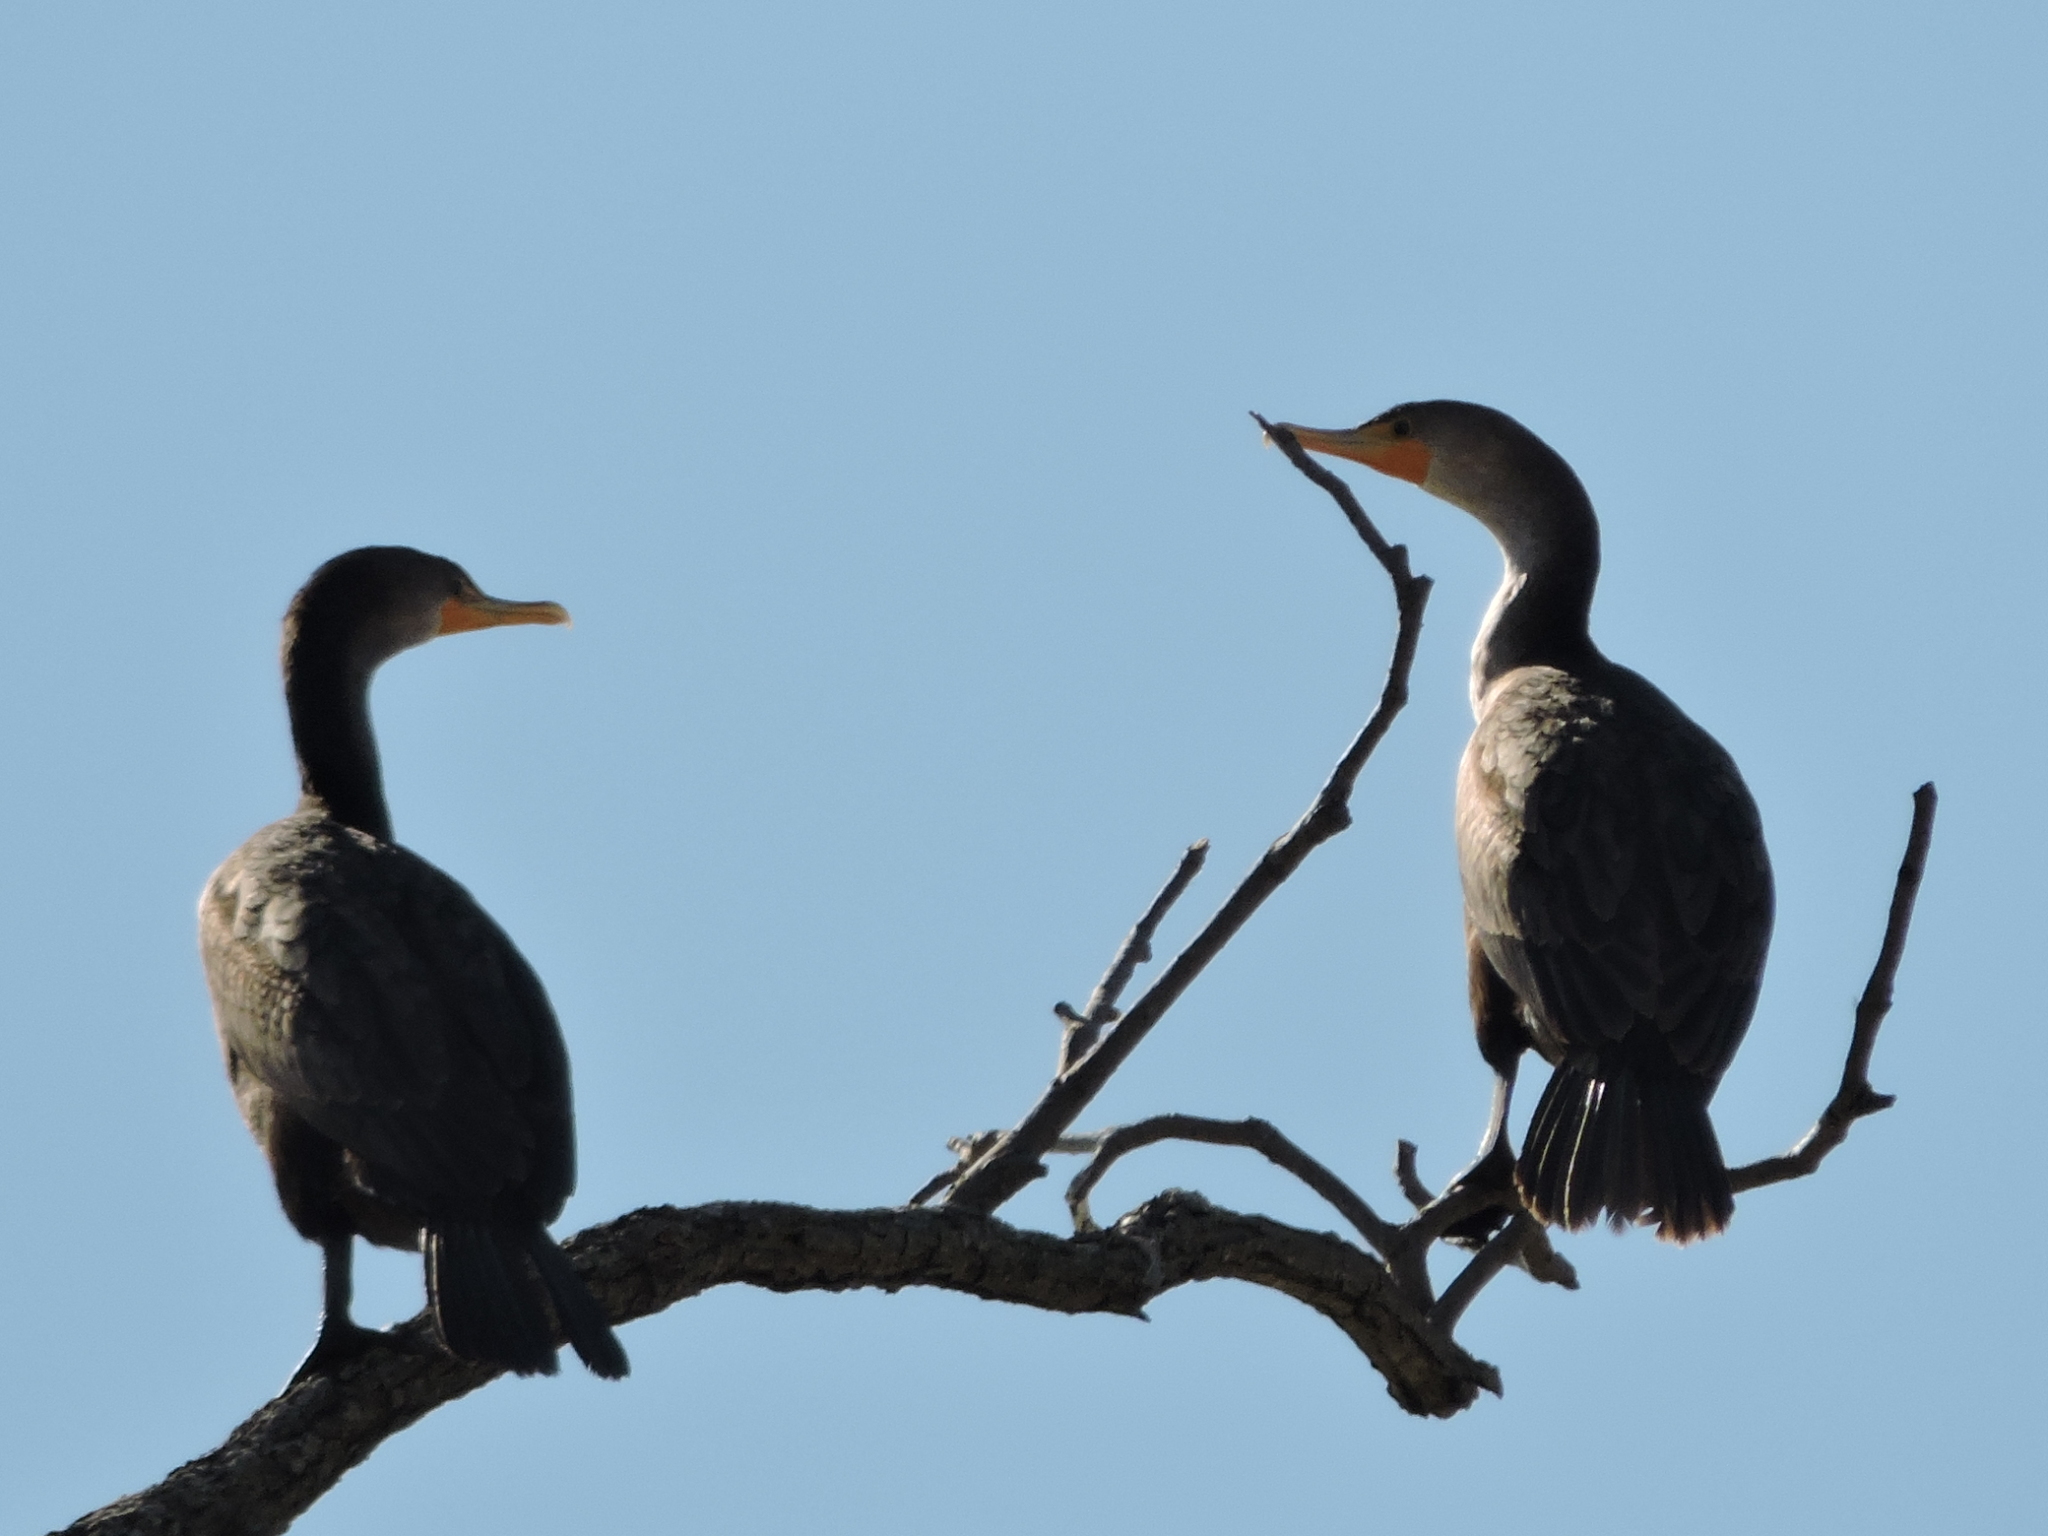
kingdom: Animalia
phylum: Chordata
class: Aves
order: Suliformes
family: Phalacrocoracidae
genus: Phalacrocorax
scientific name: Phalacrocorax auritus
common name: Double-crested cormorant
